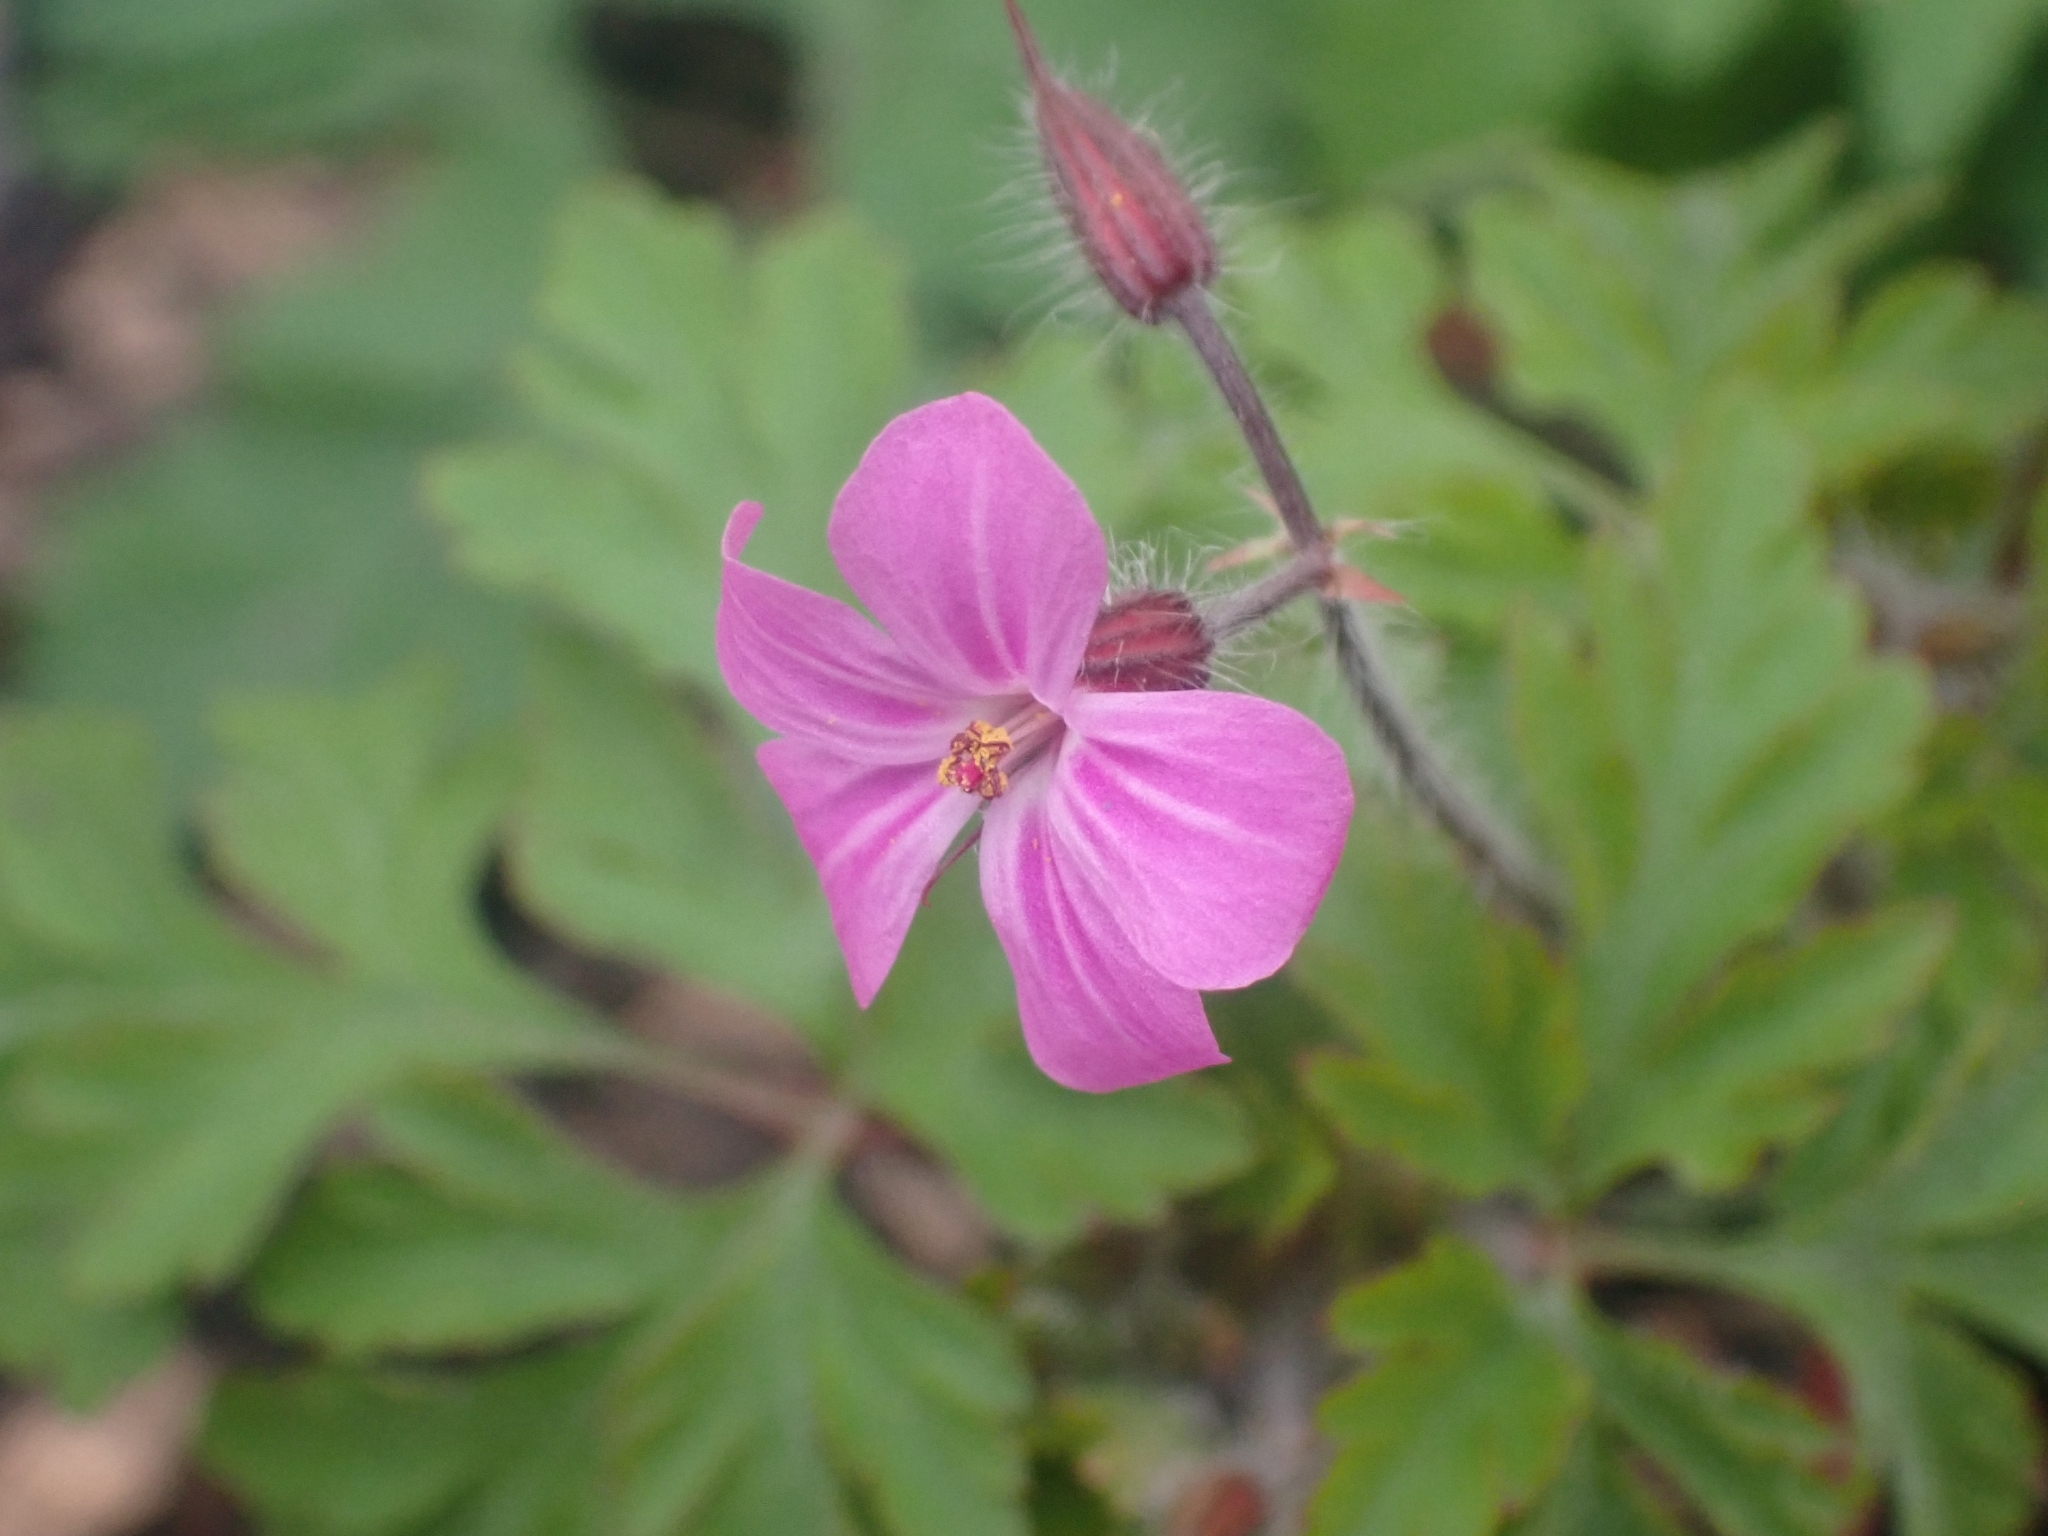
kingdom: Plantae
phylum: Tracheophyta
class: Magnoliopsida
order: Geraniales
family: Geraniaceae
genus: Geranium
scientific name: Geranium robertianum
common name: Herb-robert
